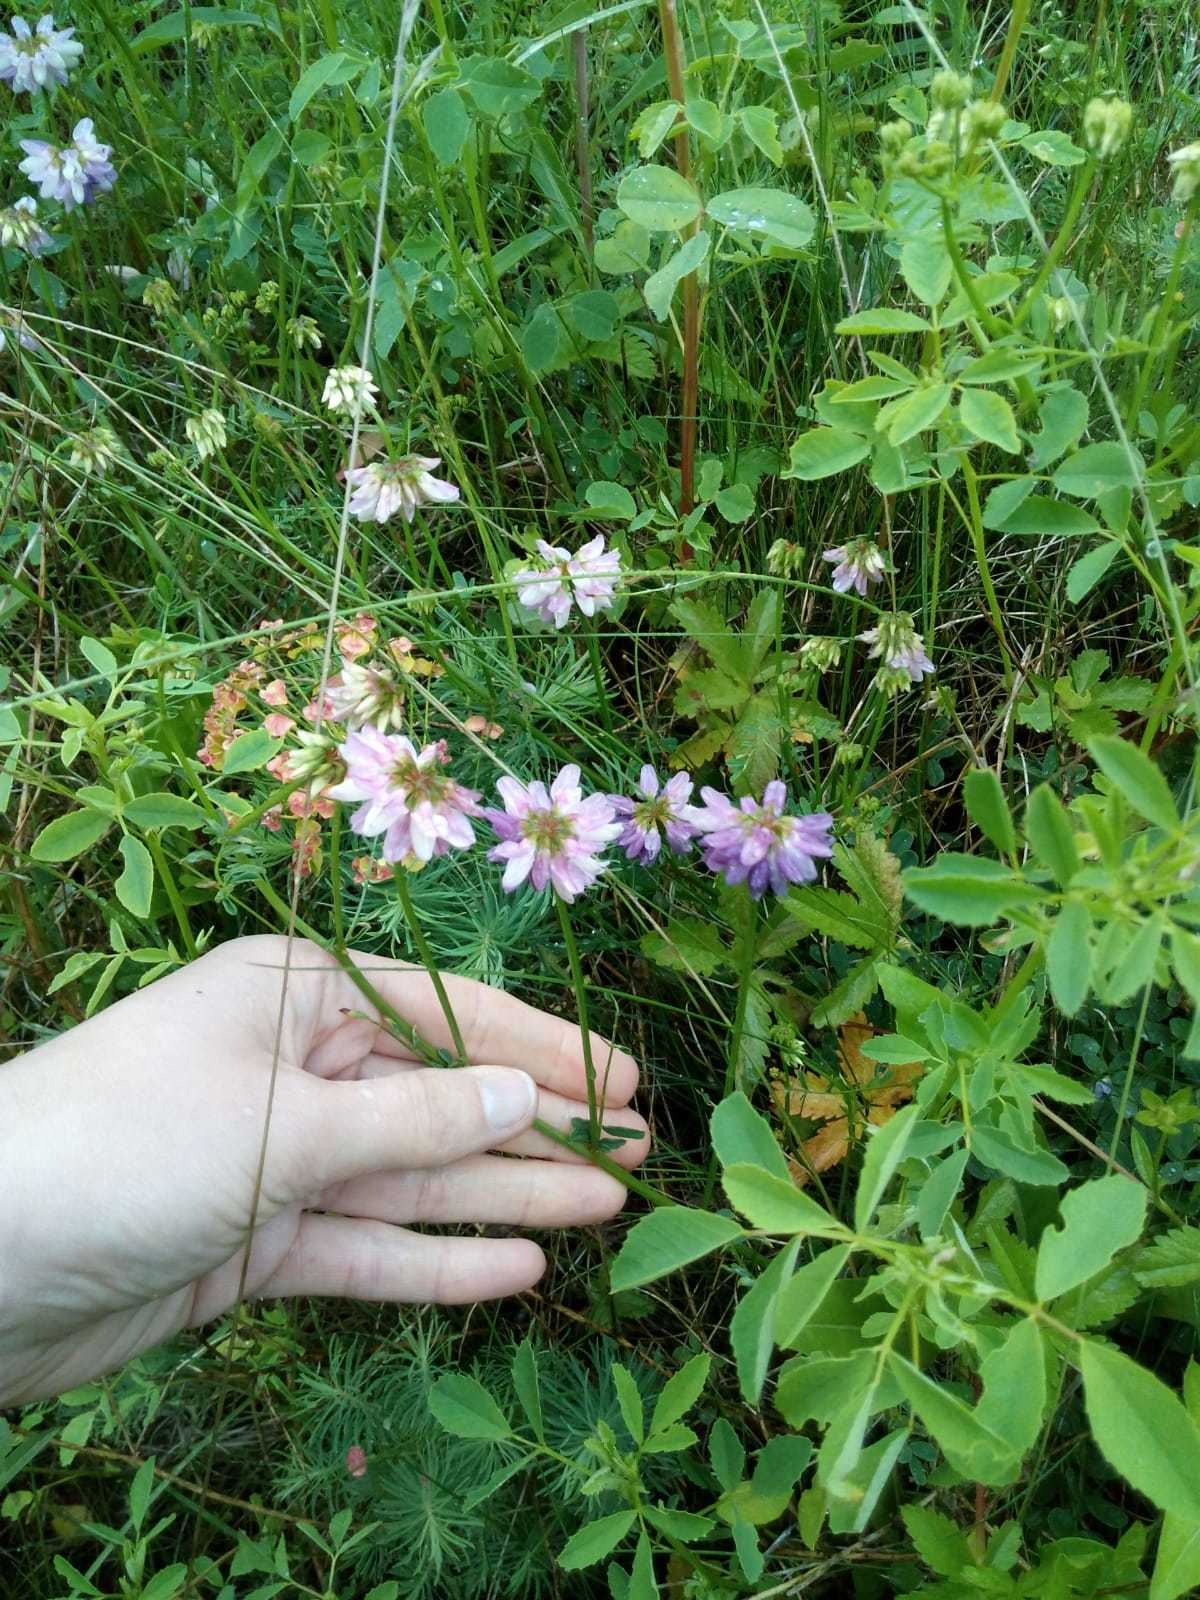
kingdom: Plantae
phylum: Tracheophyta
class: Magnoliopsida
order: Fabales
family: Fabaceae
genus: Coronilla
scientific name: Coronilla varia
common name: Crownvetch
